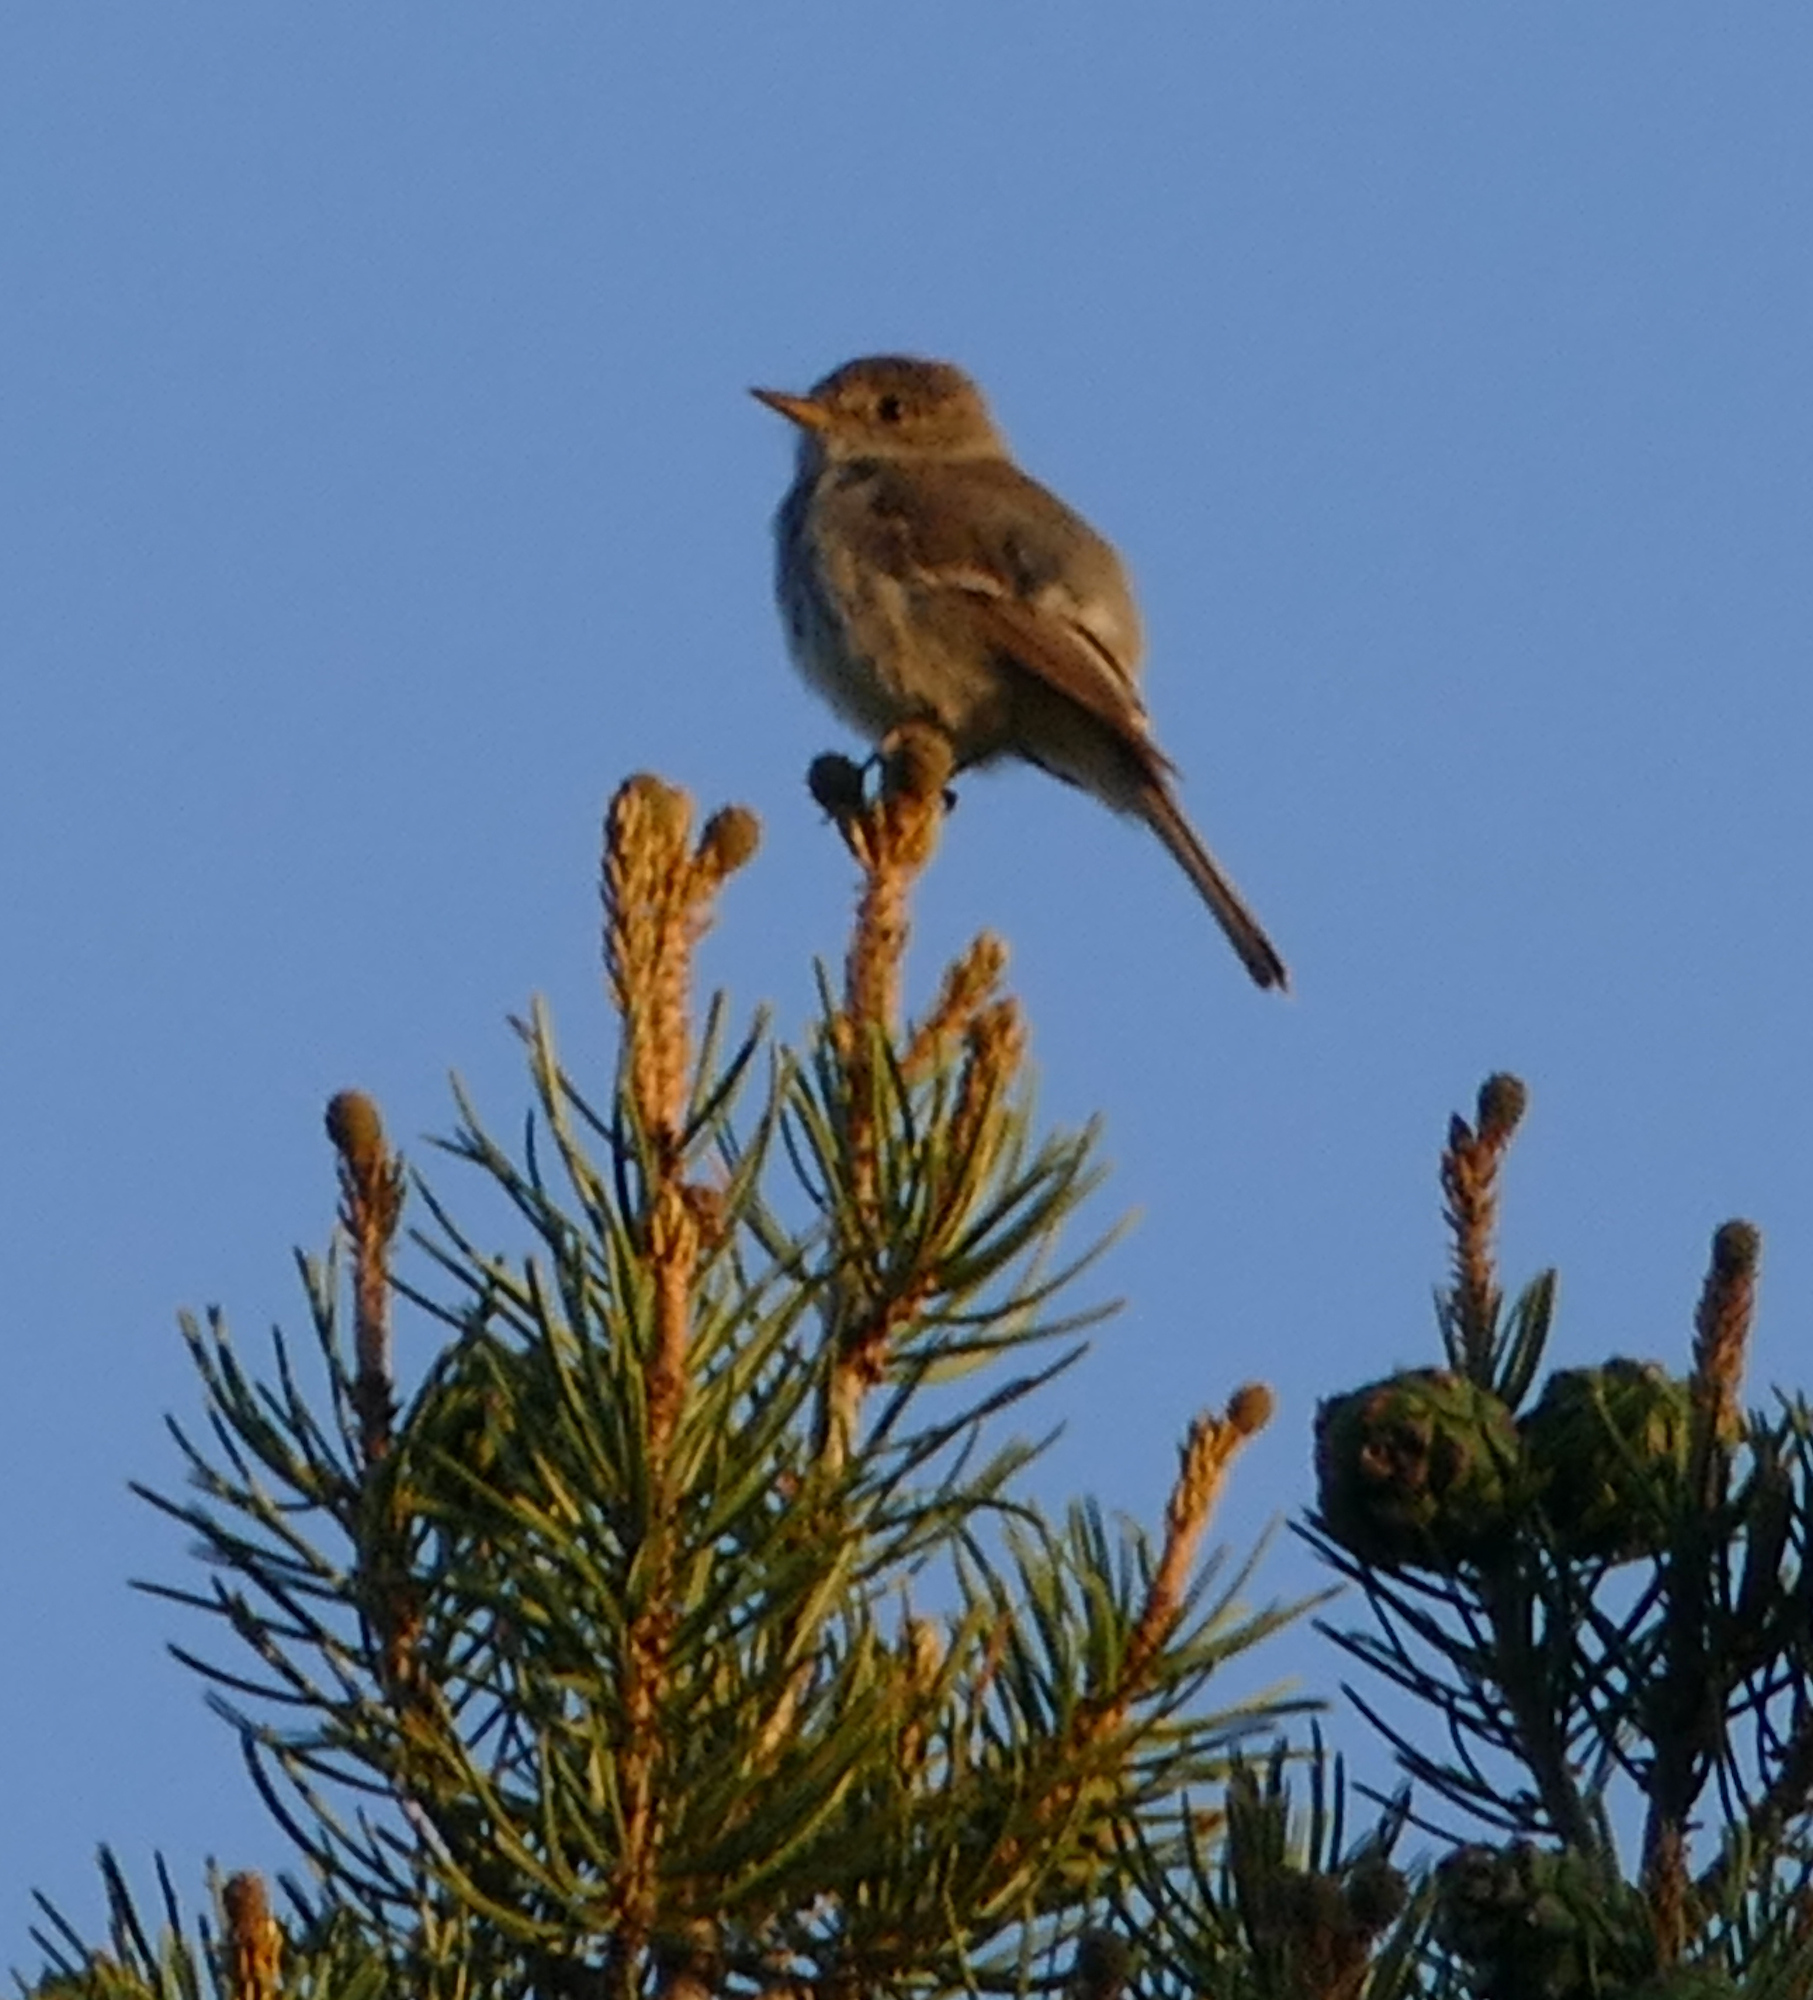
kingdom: Animalia
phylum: Chordata
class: Aves
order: Passeriformes
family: Tyrannidae
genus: Empidonax
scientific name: Empidonax wrightii
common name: Gray flycatcher
